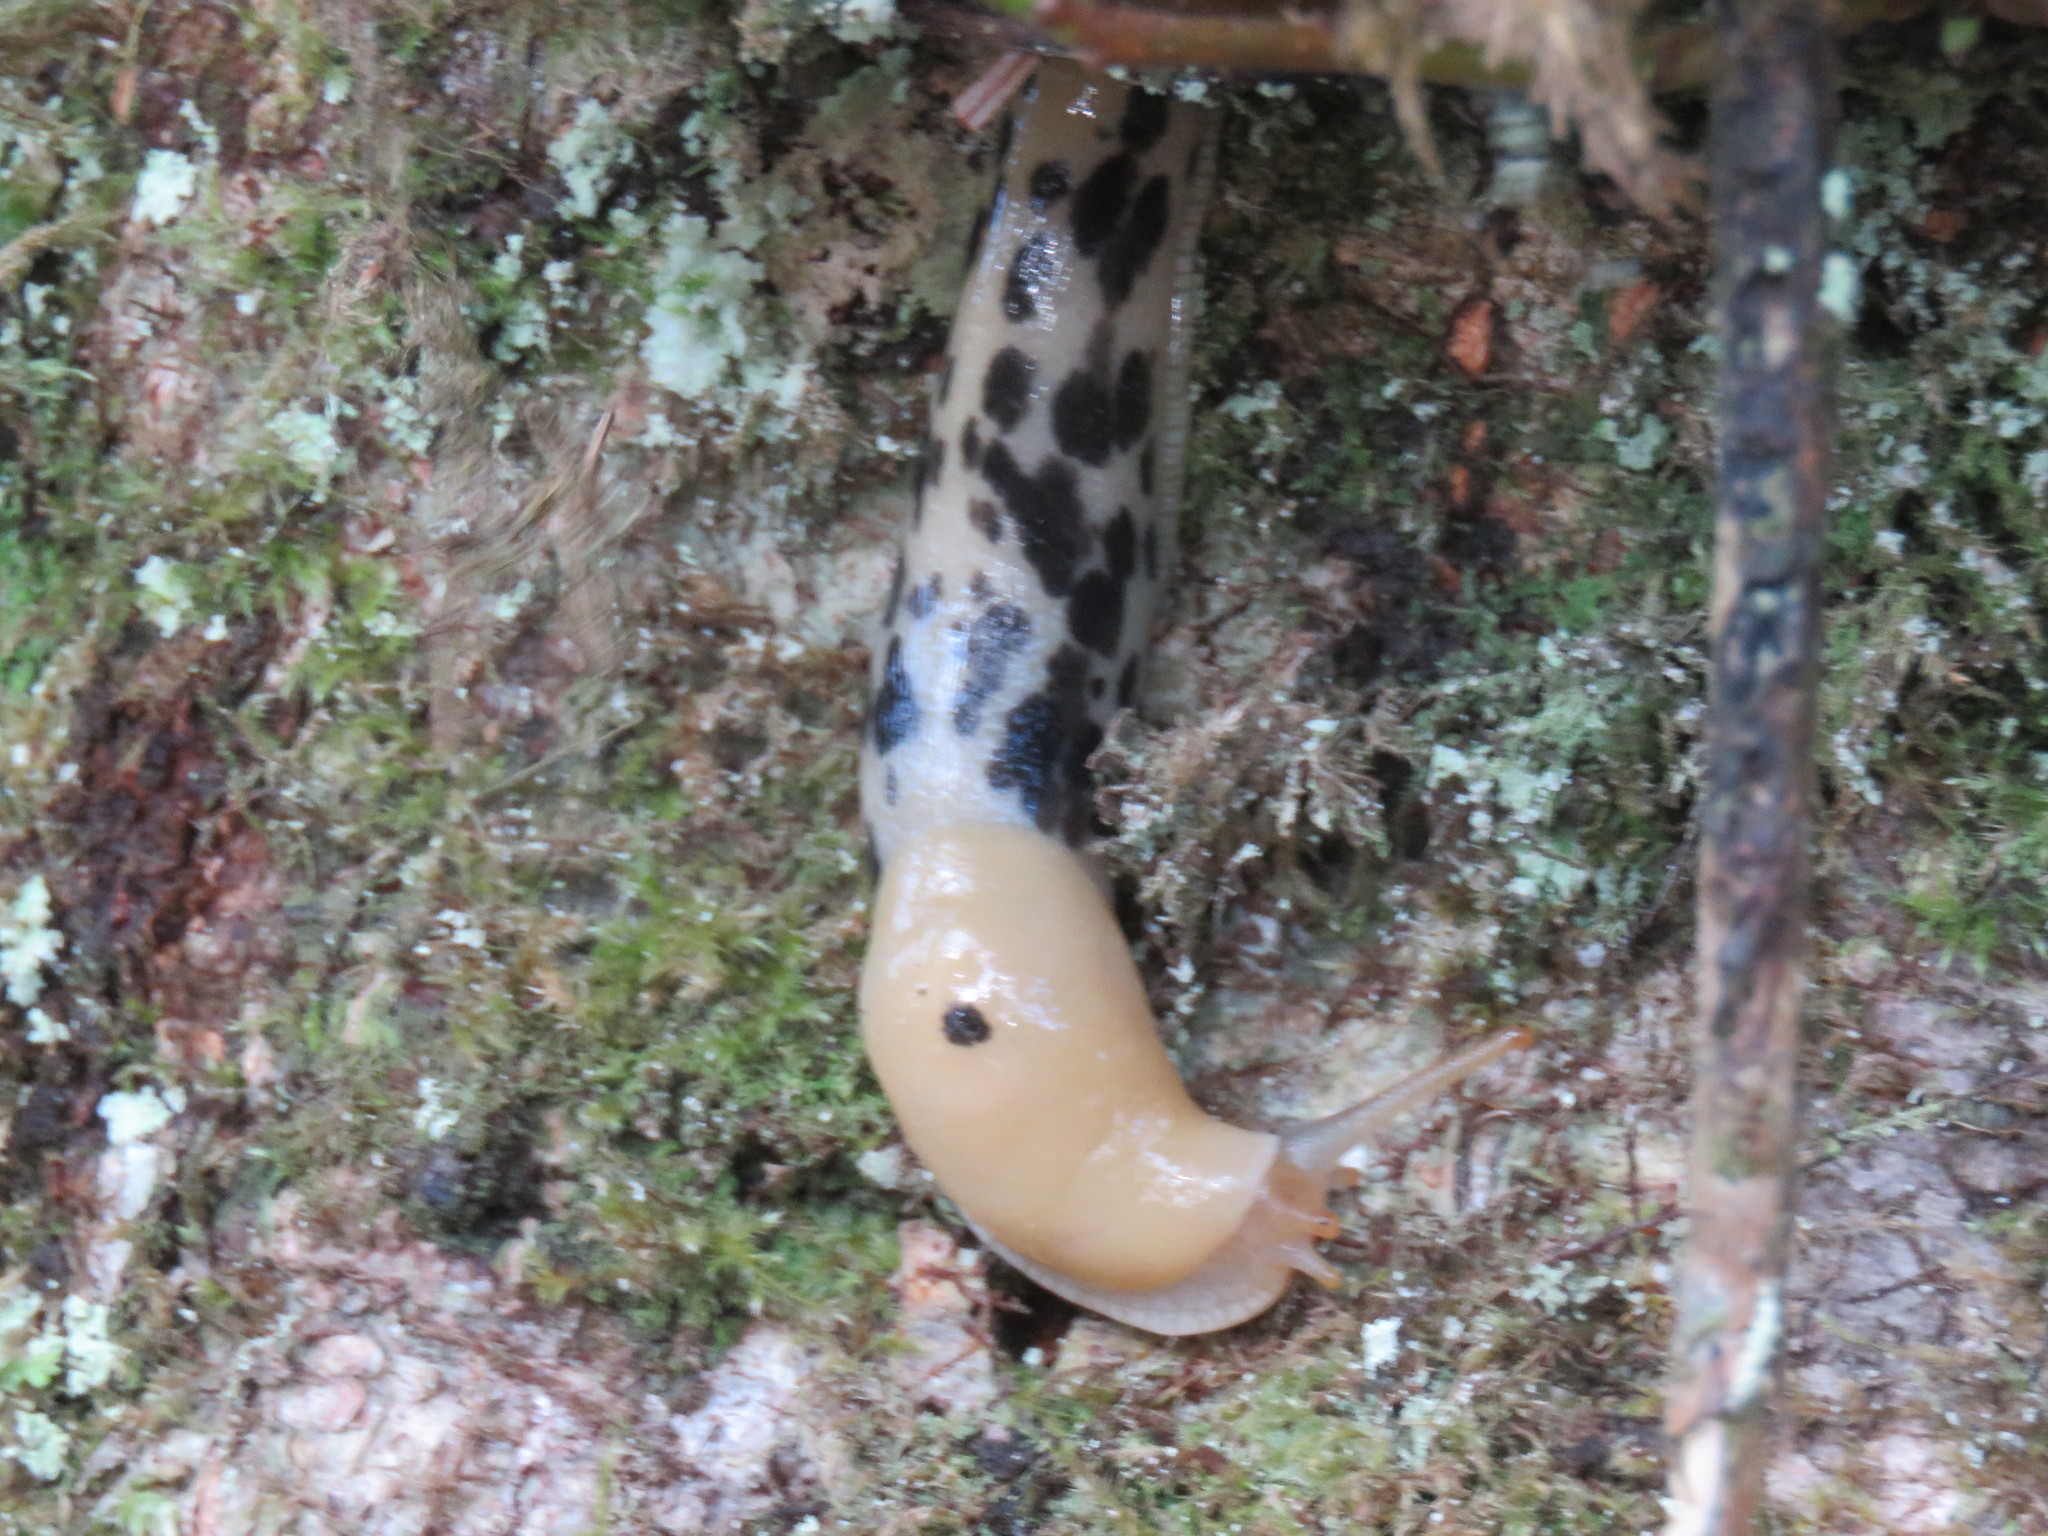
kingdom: Animalia
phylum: Mollusca
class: Gastropoda
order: Stylommatophora
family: Ariolimacidae
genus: Ariolimax
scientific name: Ariolimax columbianus
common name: Pacific banana slug
